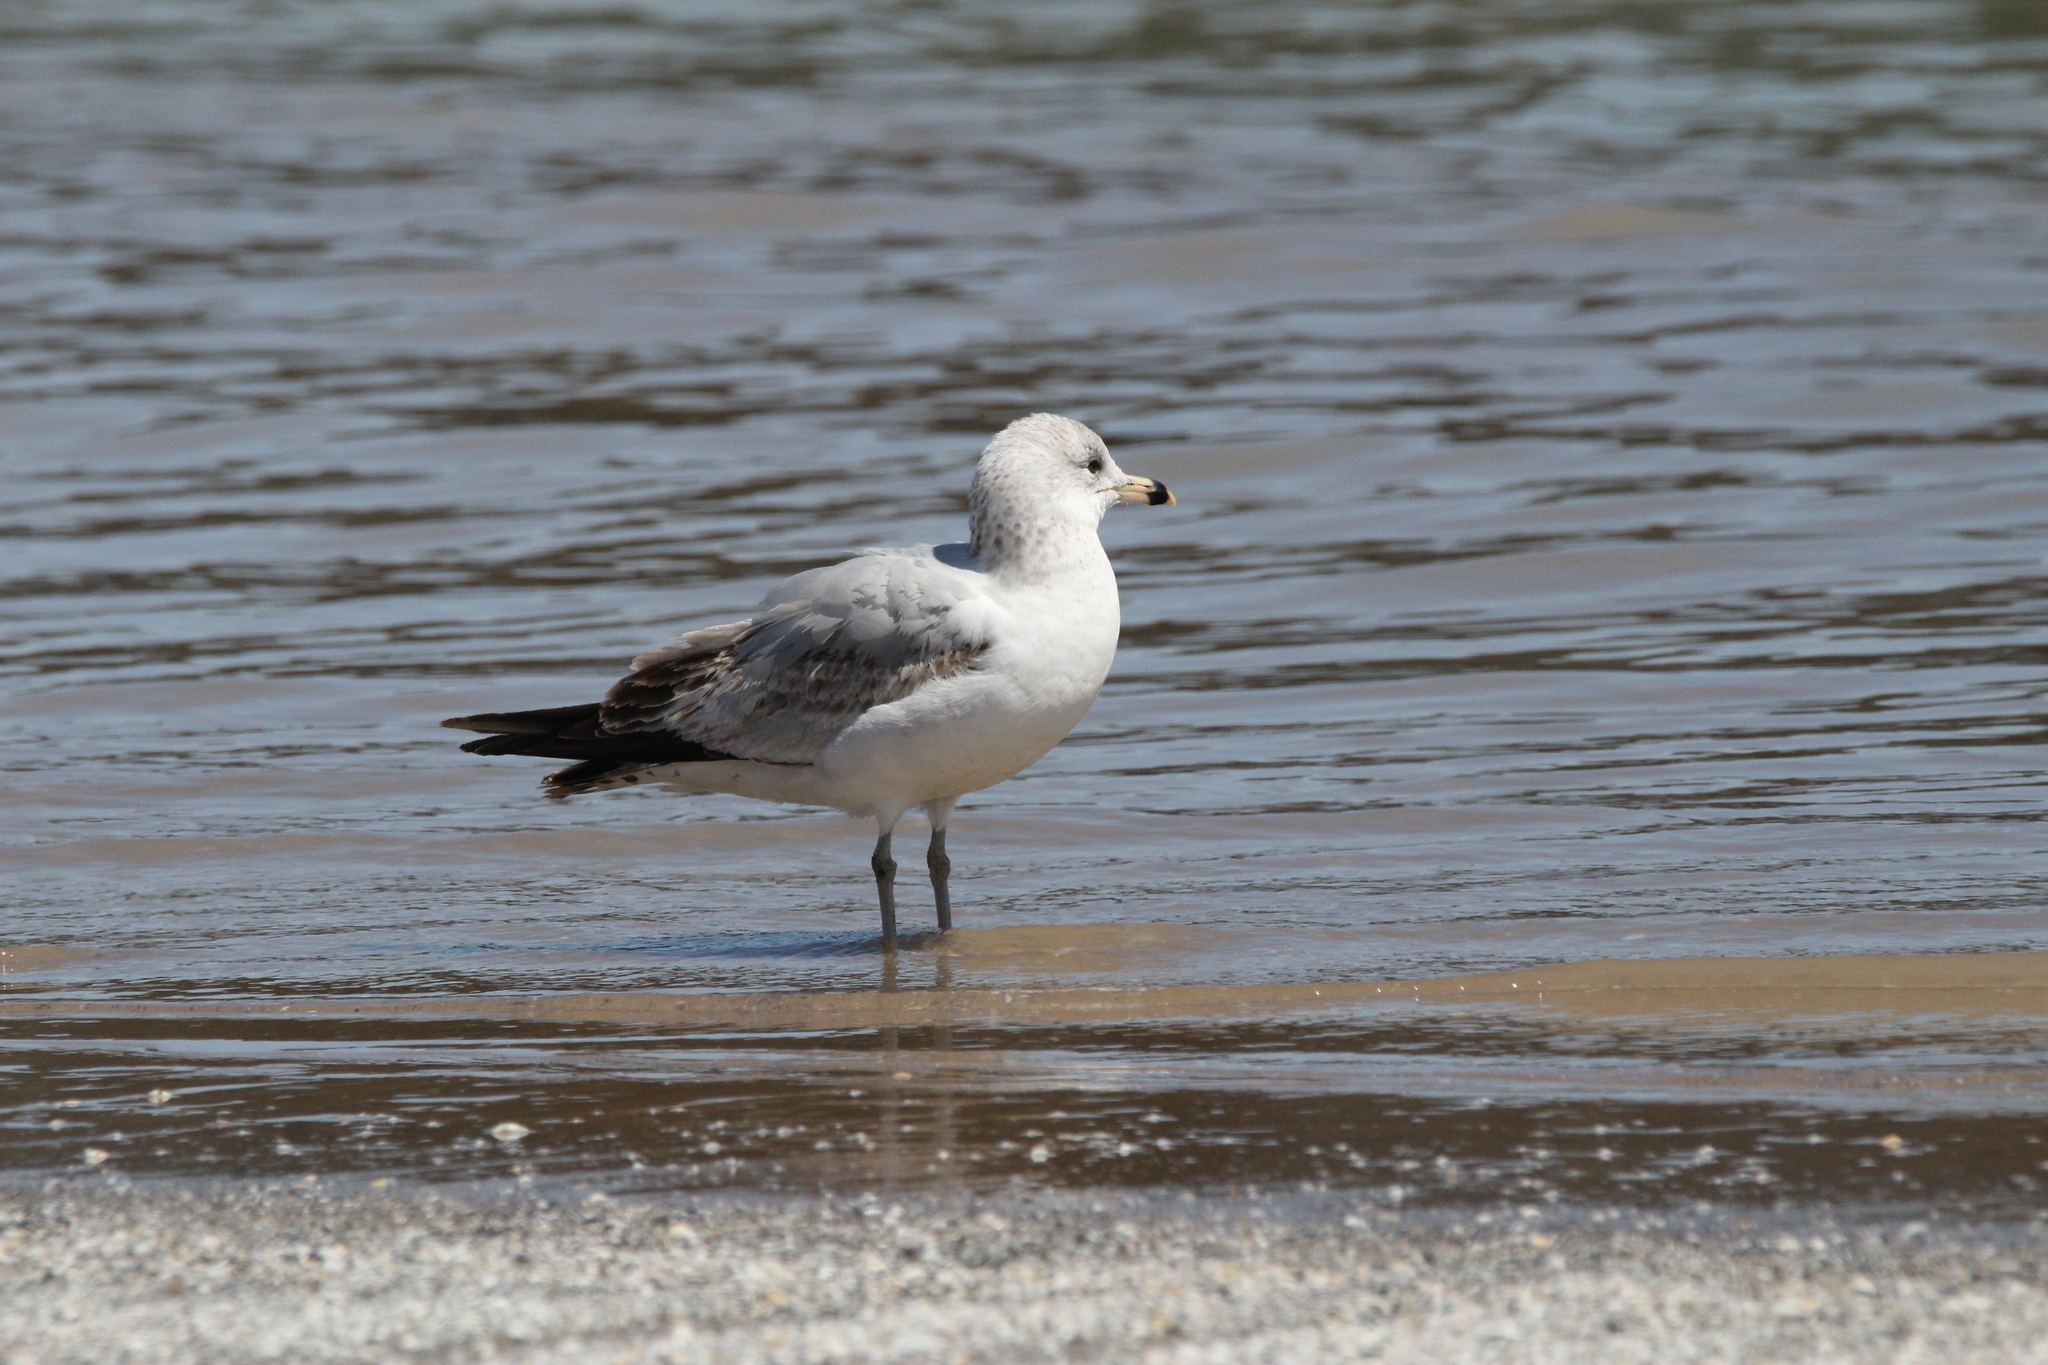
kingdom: Animalia
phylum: Chordata
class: Aves
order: Charadriiformes
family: Laridae
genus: Larus
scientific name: Larus delawarensis
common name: Ring-billed gull
